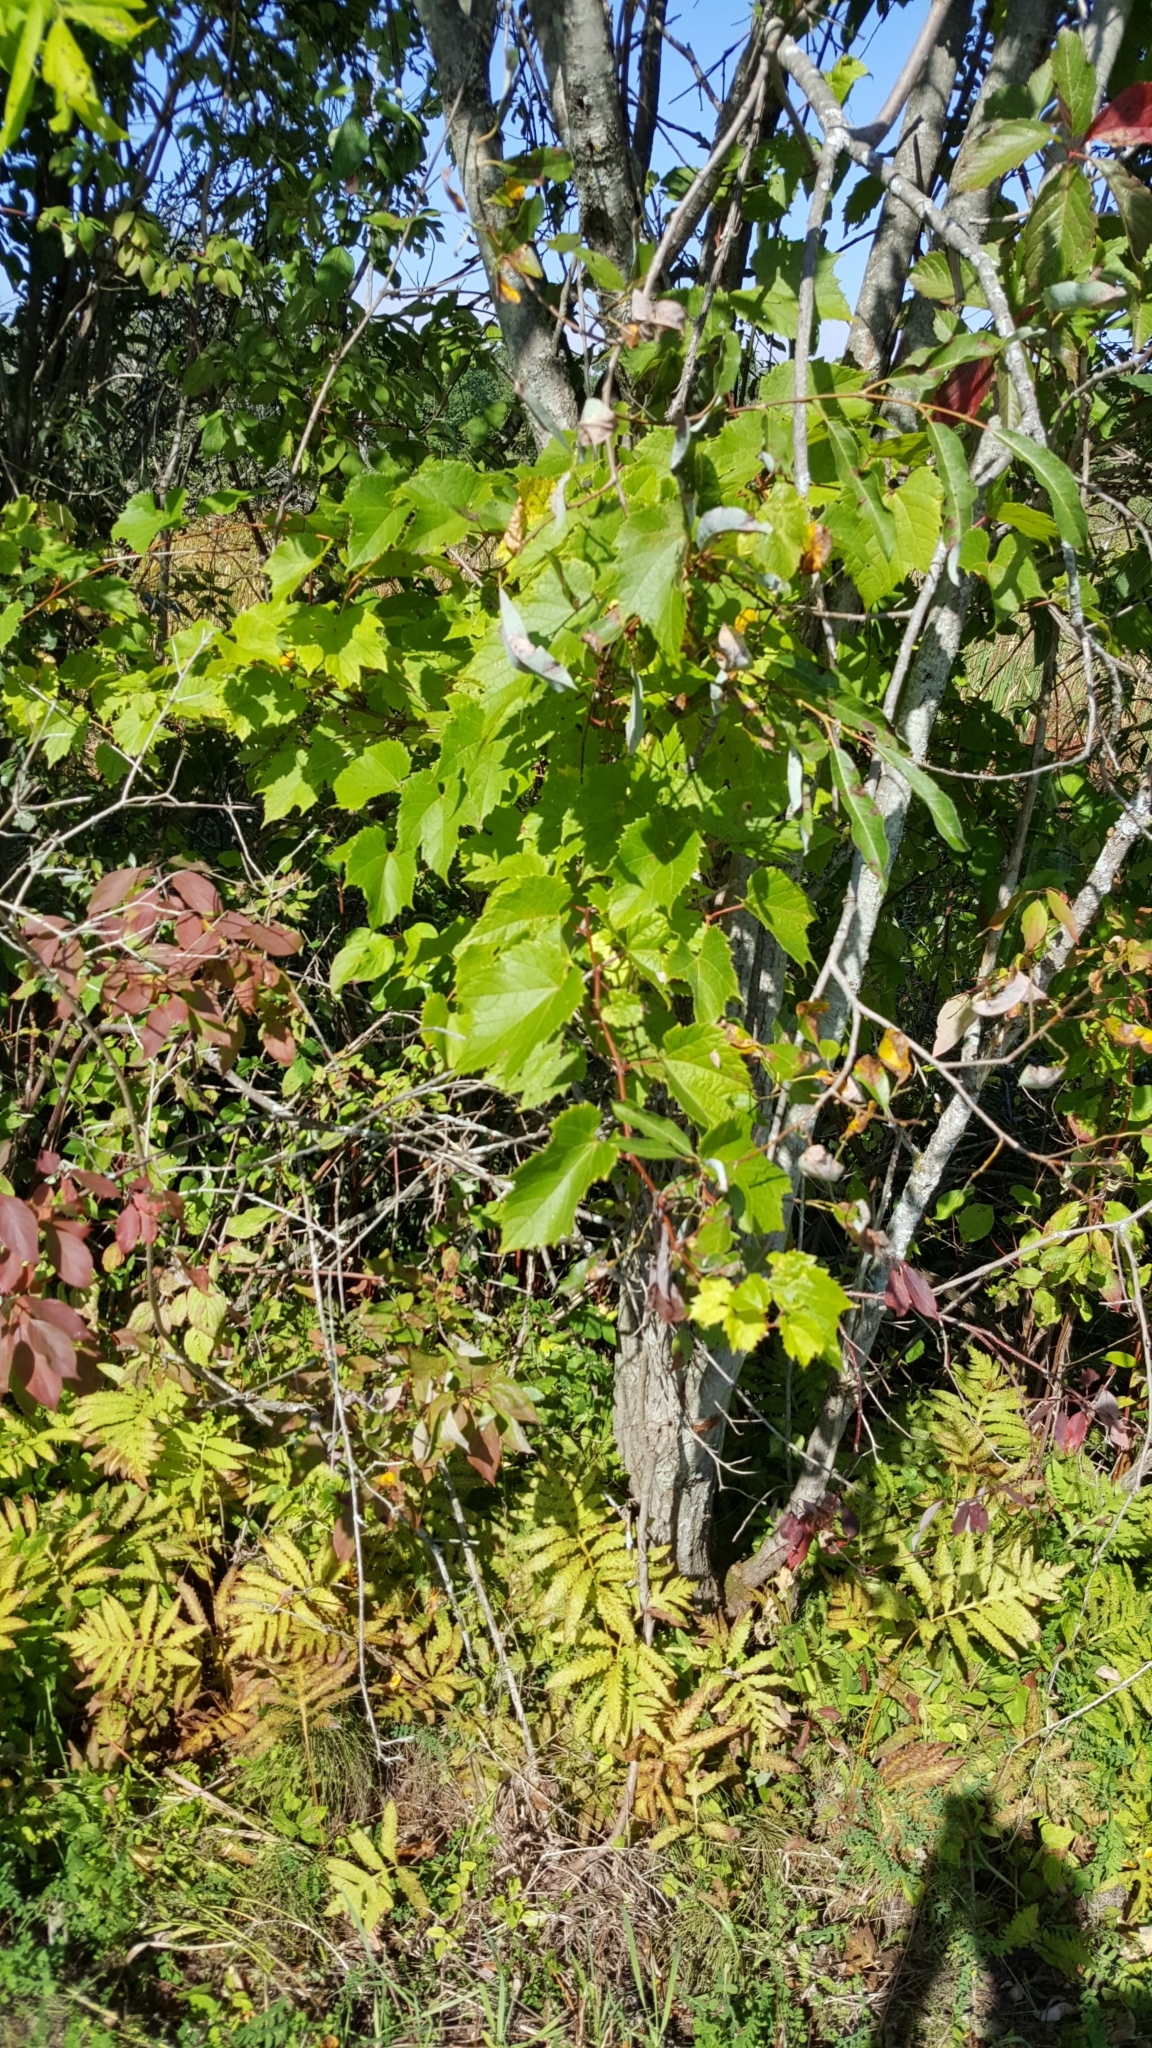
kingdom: Plantae
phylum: Tracheophyta
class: Magnoliopsida
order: Vitales
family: Vitaceae
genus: Vitis
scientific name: Vitis riparia
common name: Frost grape
